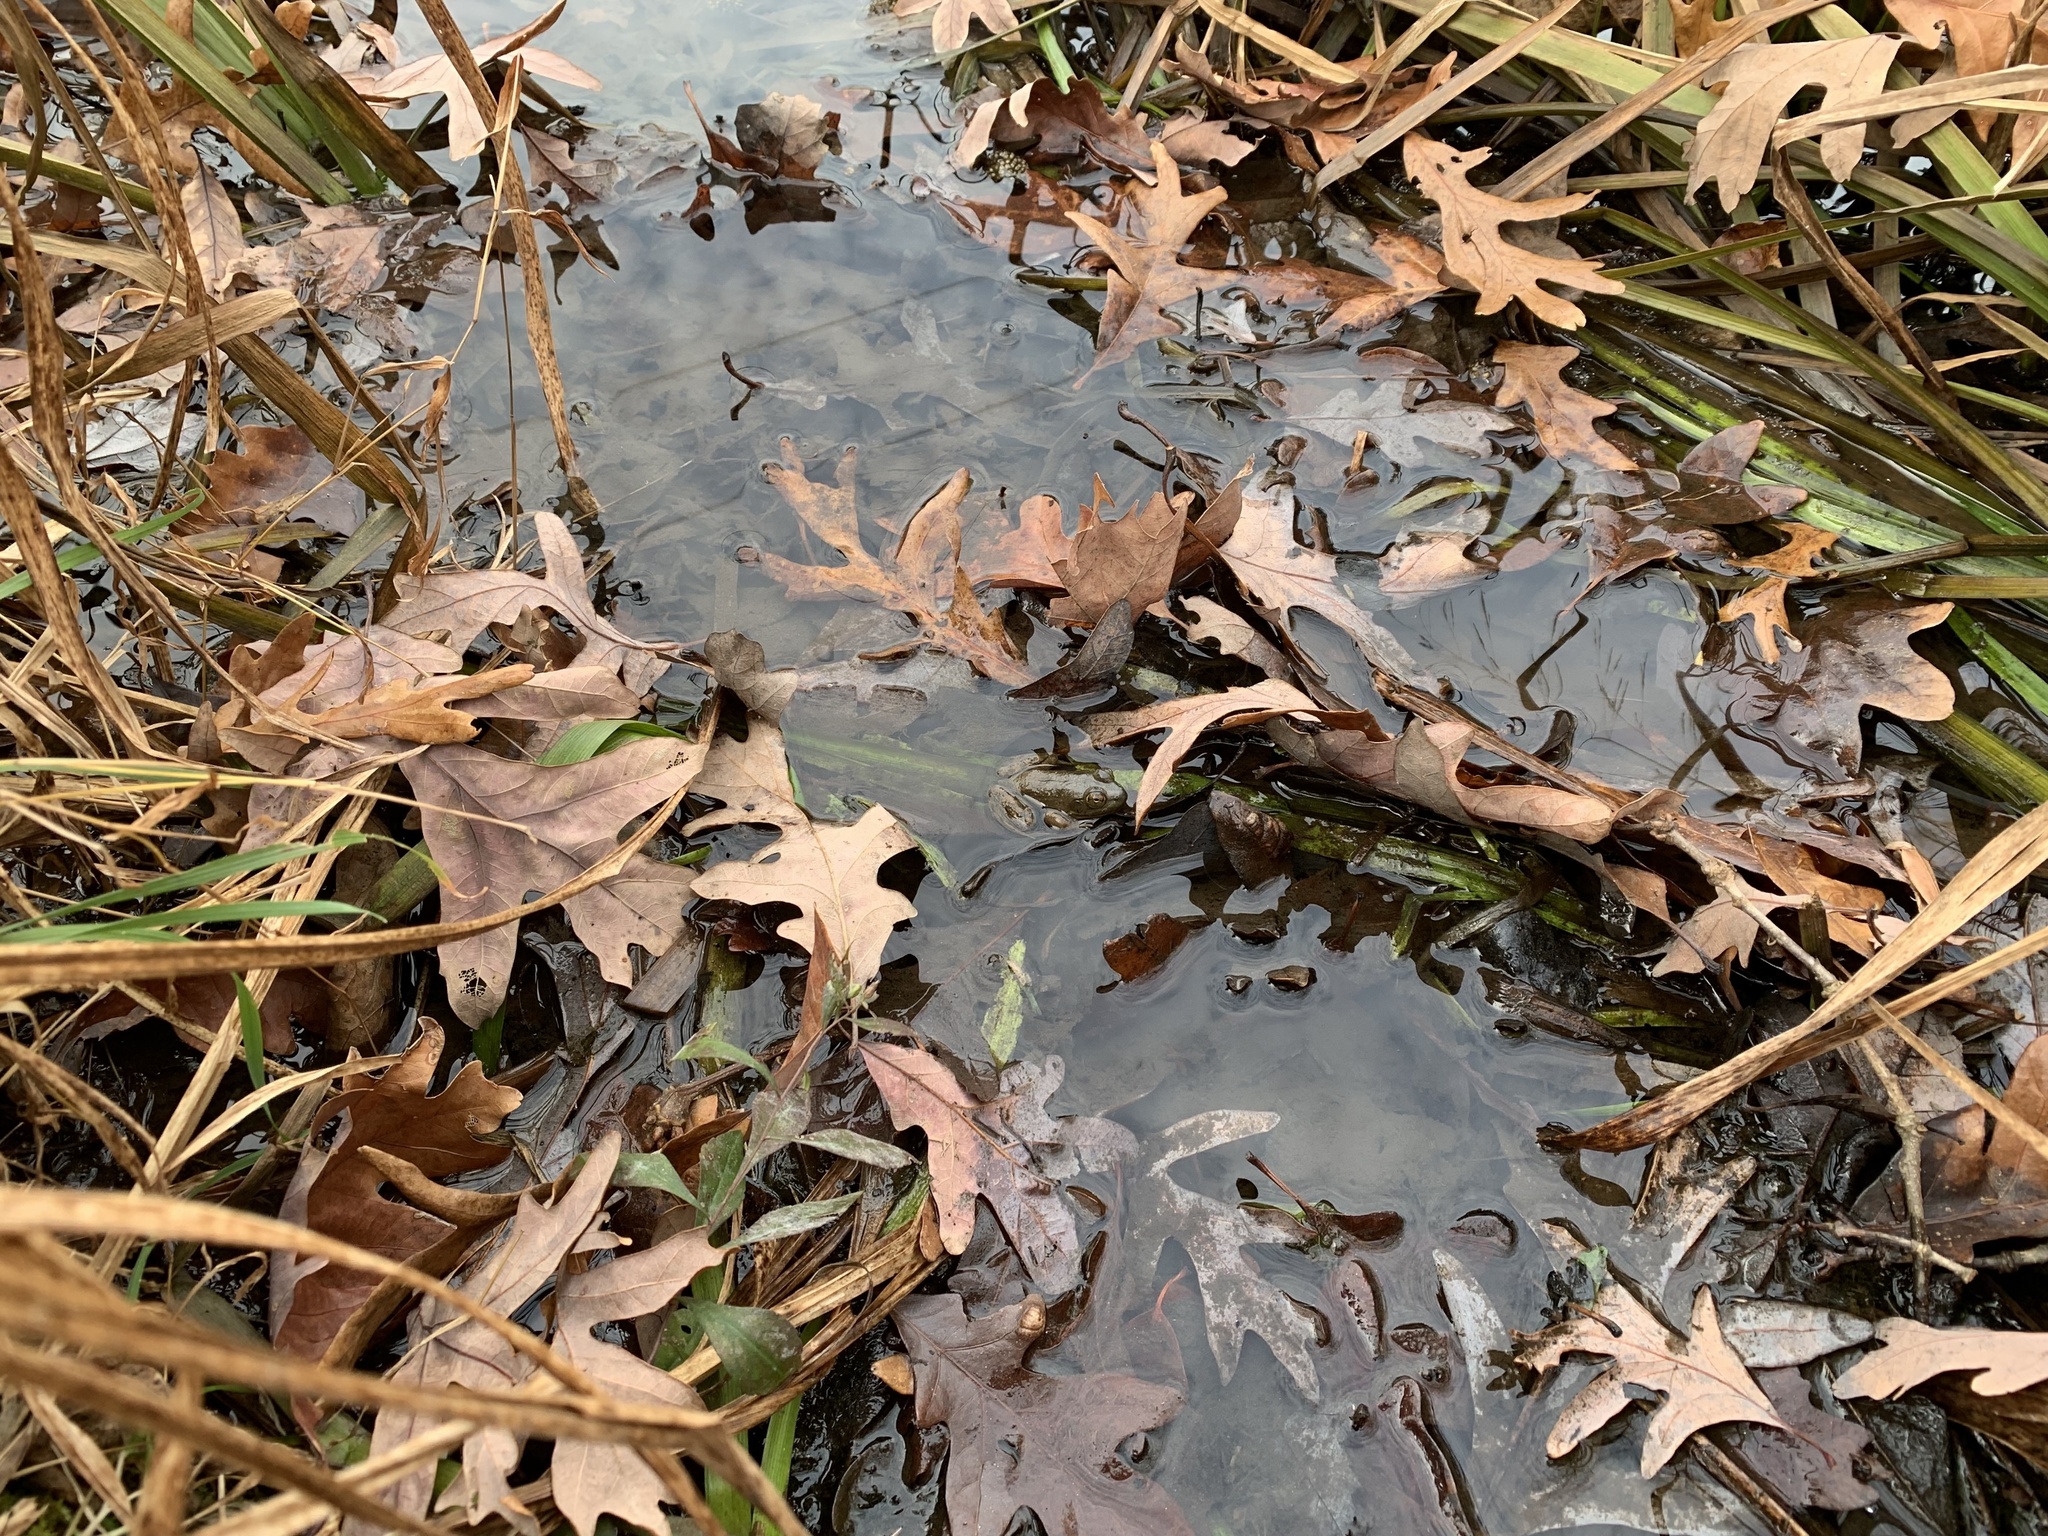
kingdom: Animalia
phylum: Chordata
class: Amphibia
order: Anura
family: Ranidae
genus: Lithobates
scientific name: Lithobates catesbeianus
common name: American bullfrog
